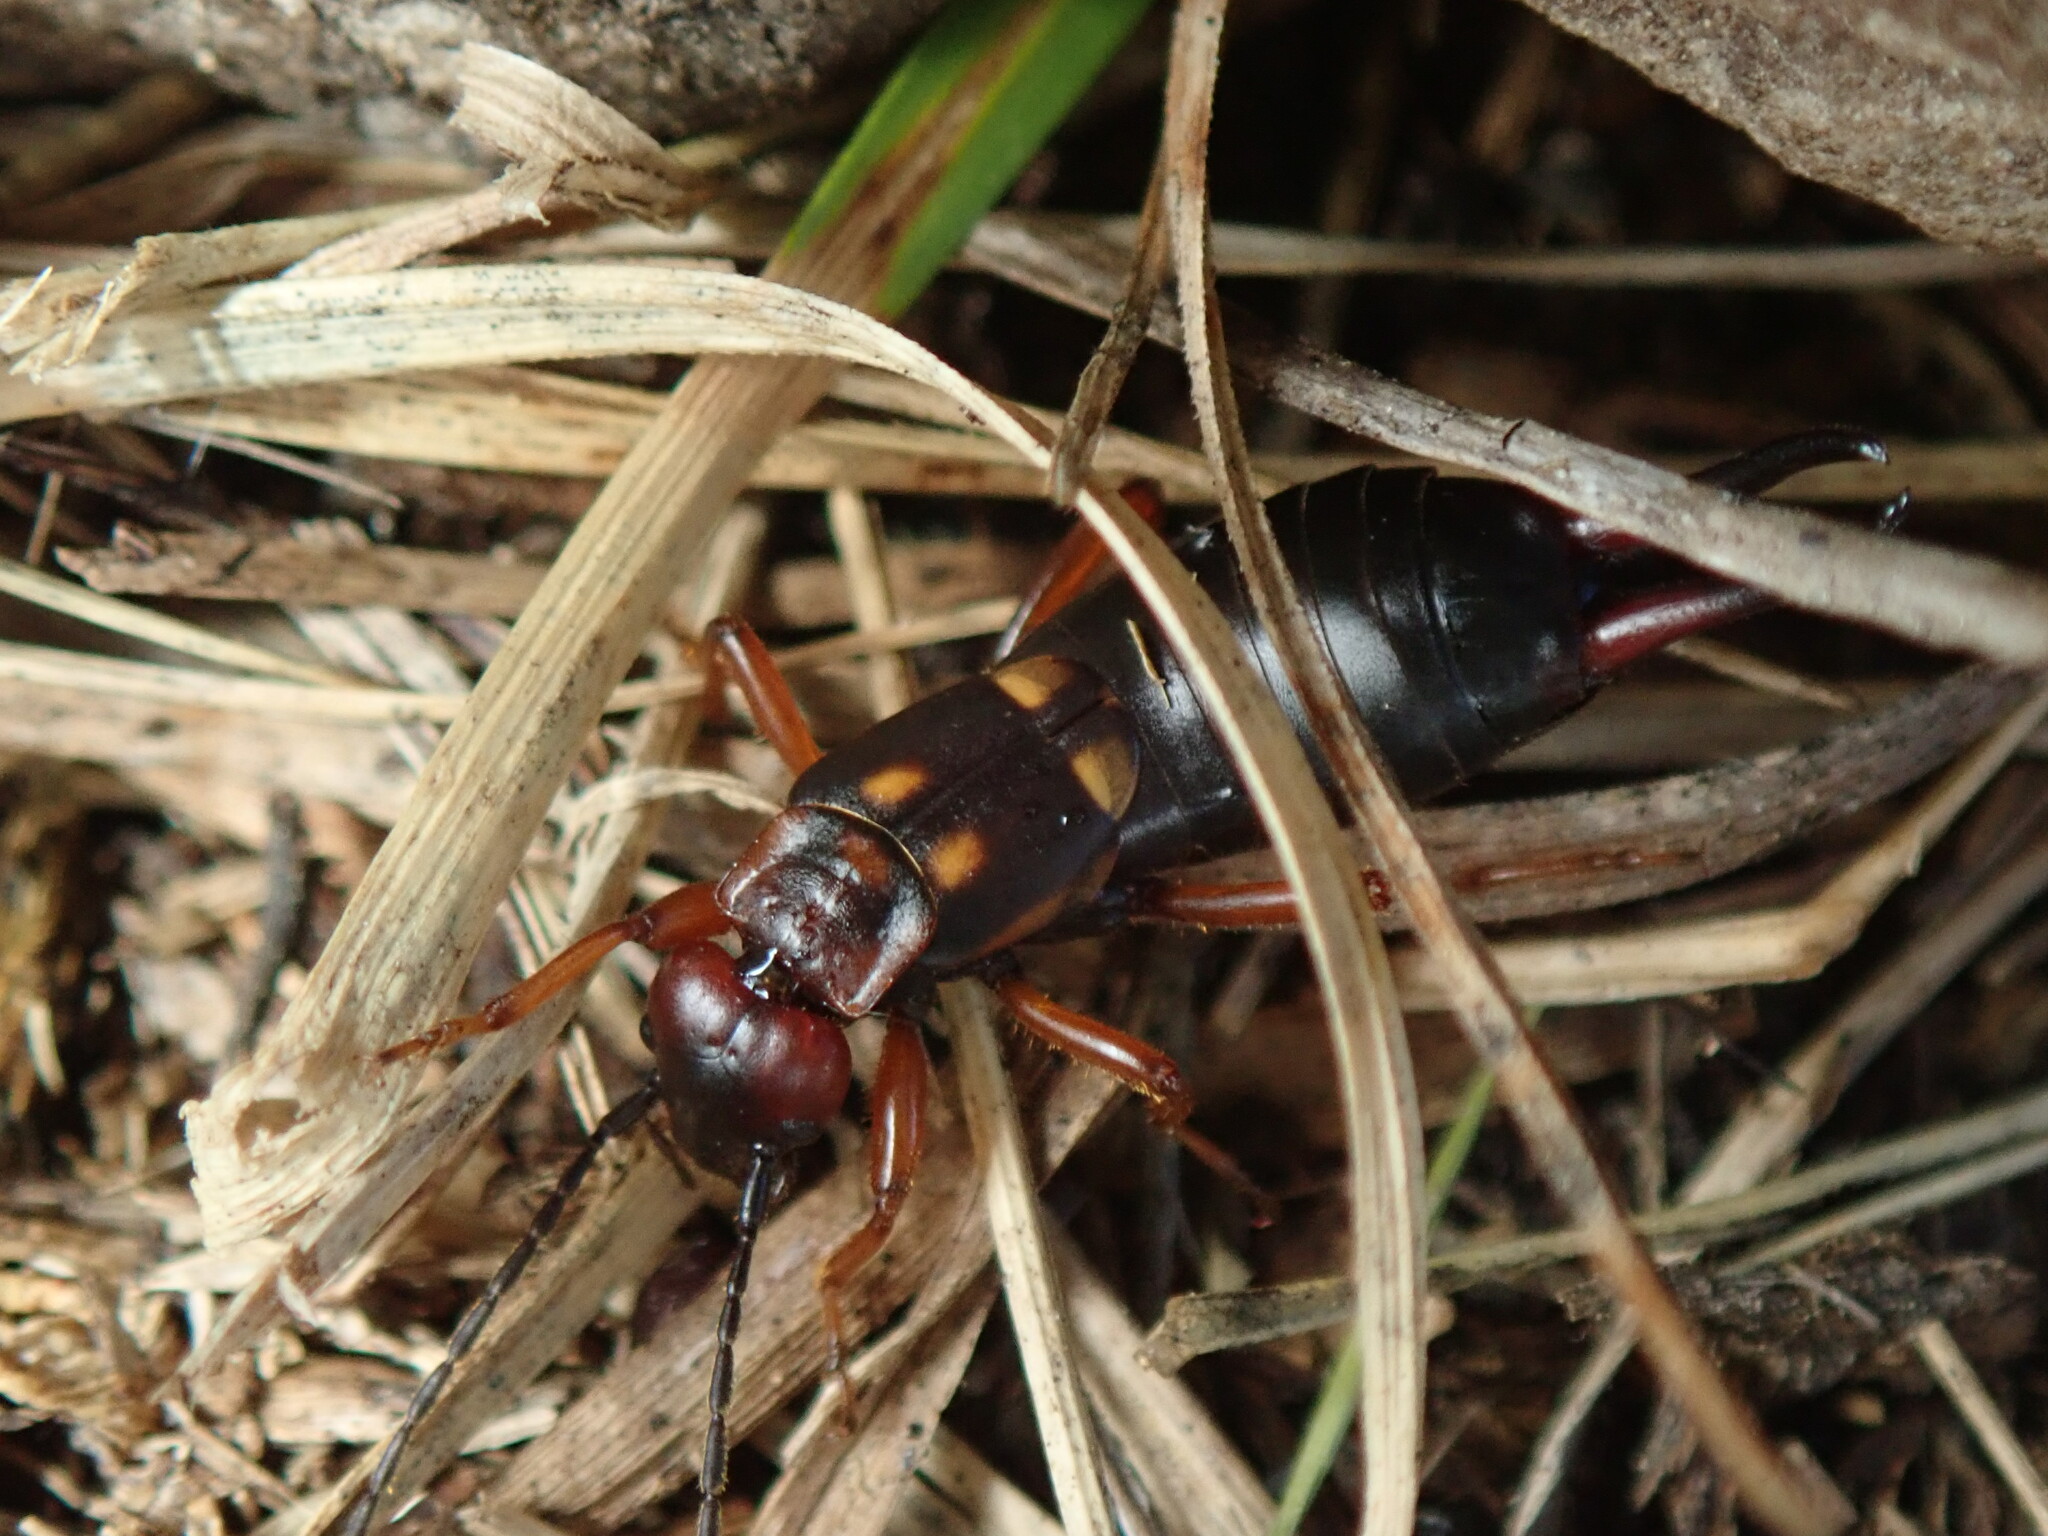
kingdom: Animalia
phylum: Arthropoda
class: Insecta
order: Dermaptera
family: Forficulidae
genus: Anechura
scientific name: Anechura bipunctata
